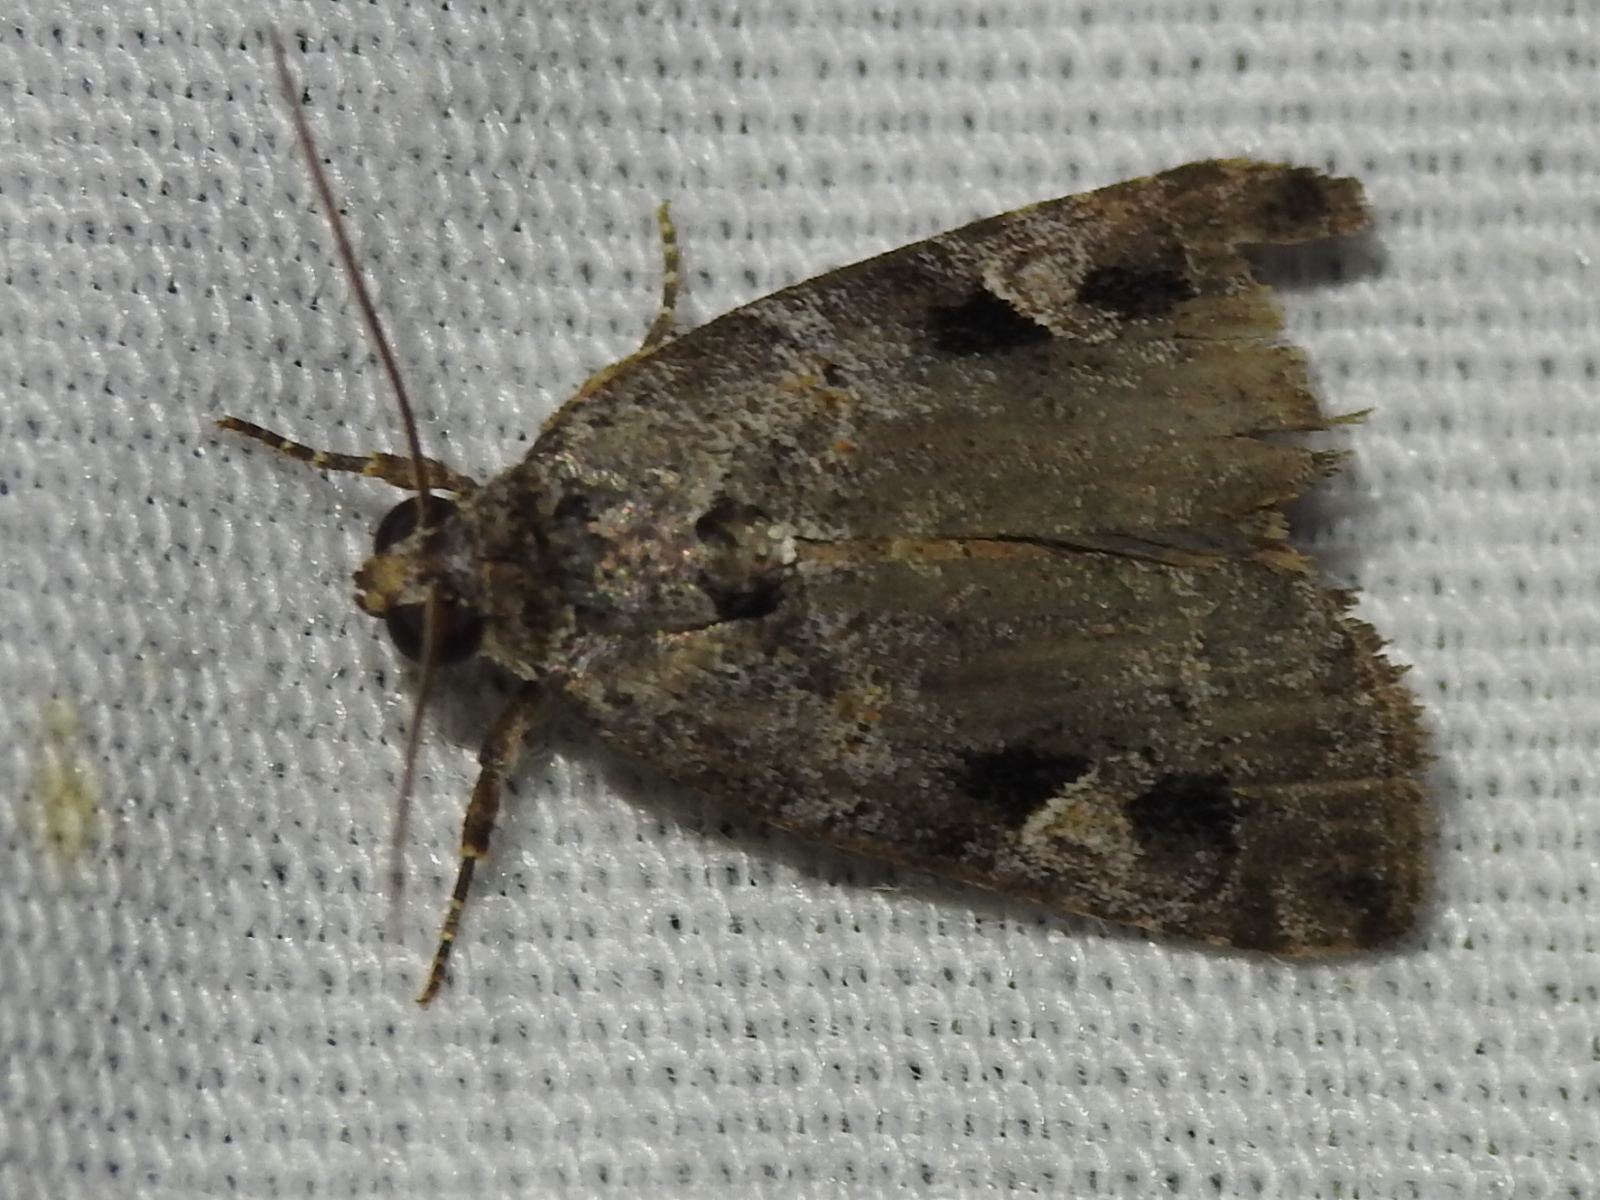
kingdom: Animalia
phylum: Arthropoda
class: Insecta
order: Lepidoptera
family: Noctuidae
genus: Metaponpneumata
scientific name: Metaponpneumata rogenhoferi
